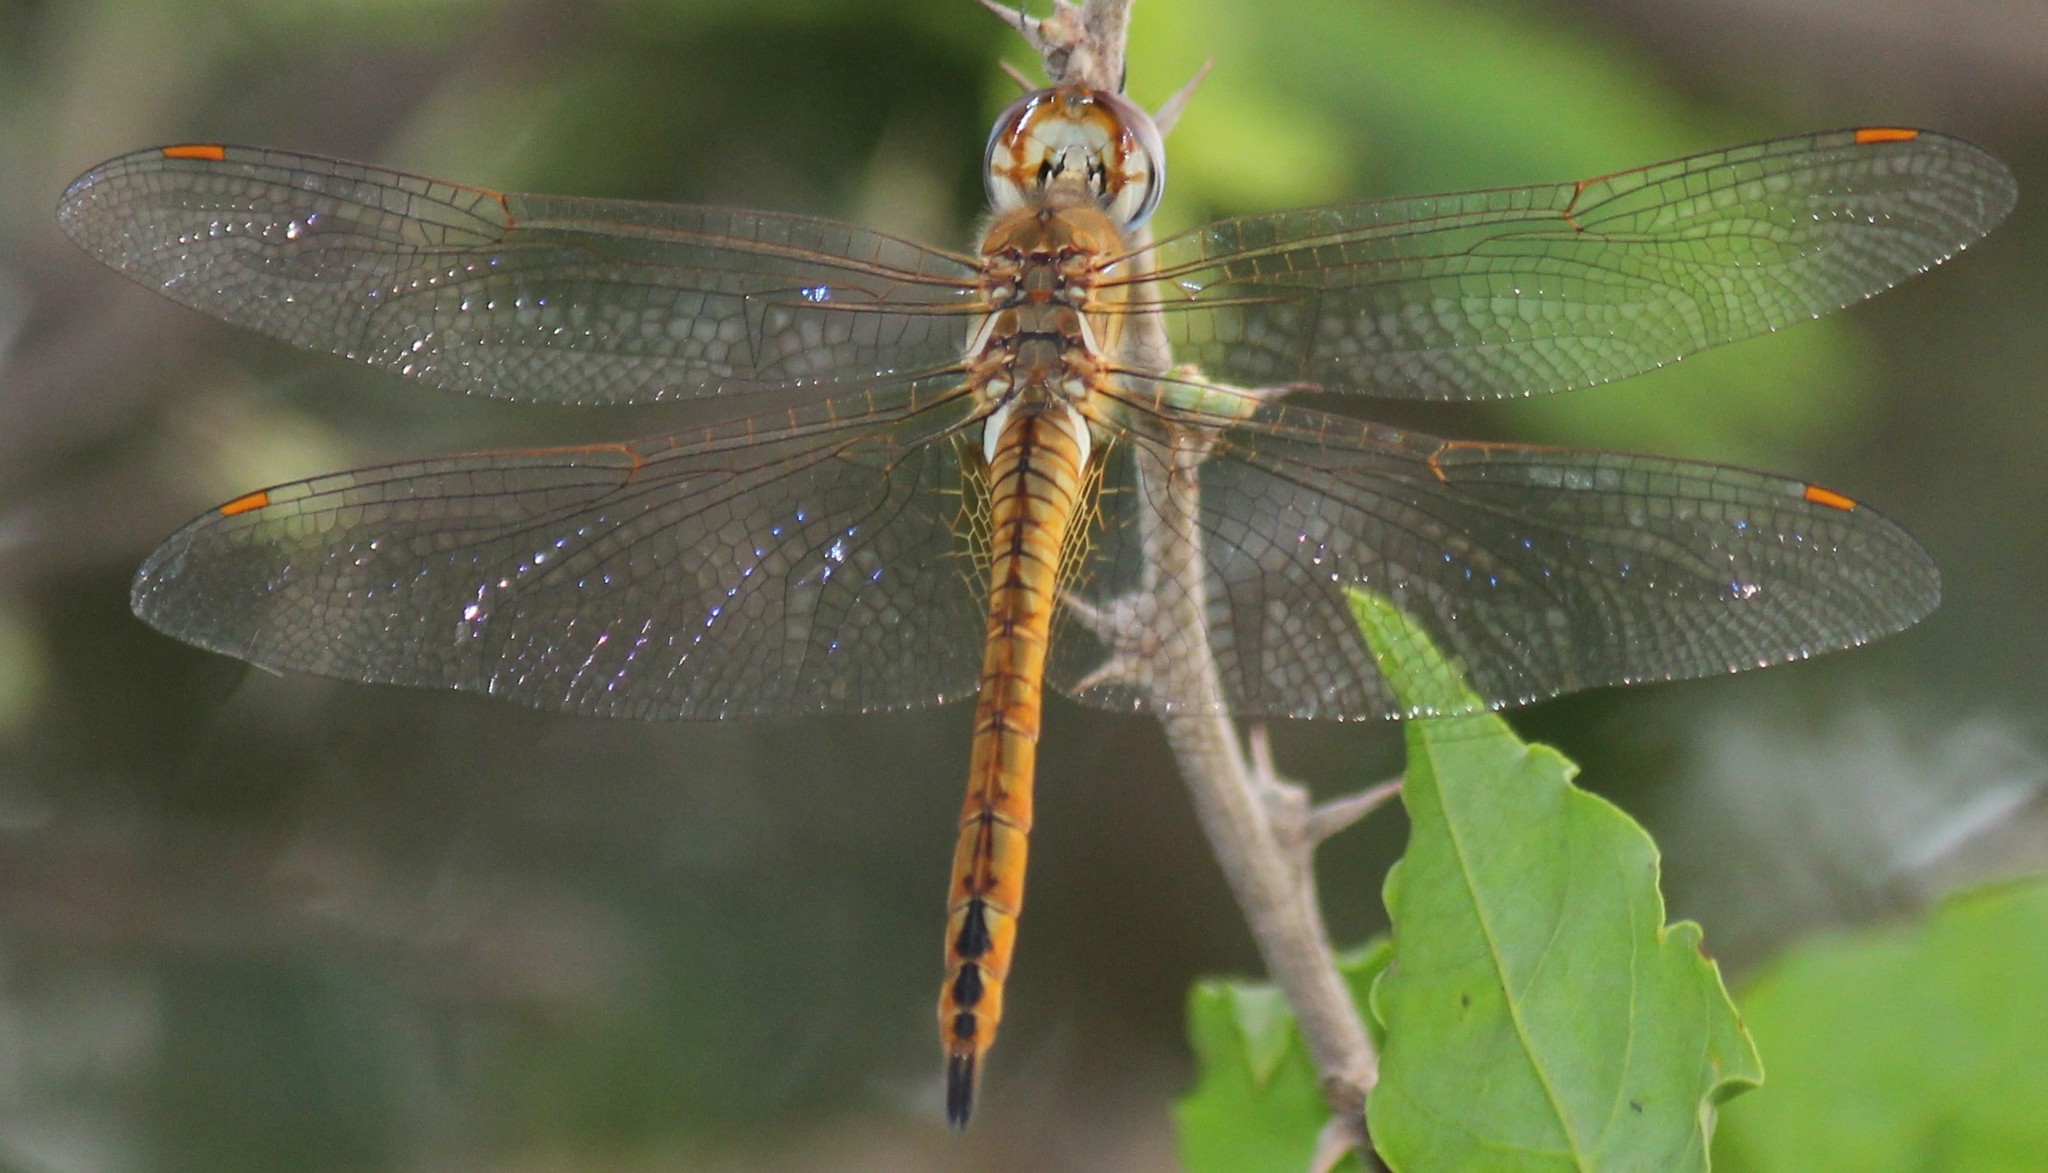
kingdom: Animalia
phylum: Arthropoda
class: Insecta
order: Odonata
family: Libellulidae
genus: Pantala
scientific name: Pantala flavescens
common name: Wandering glider
